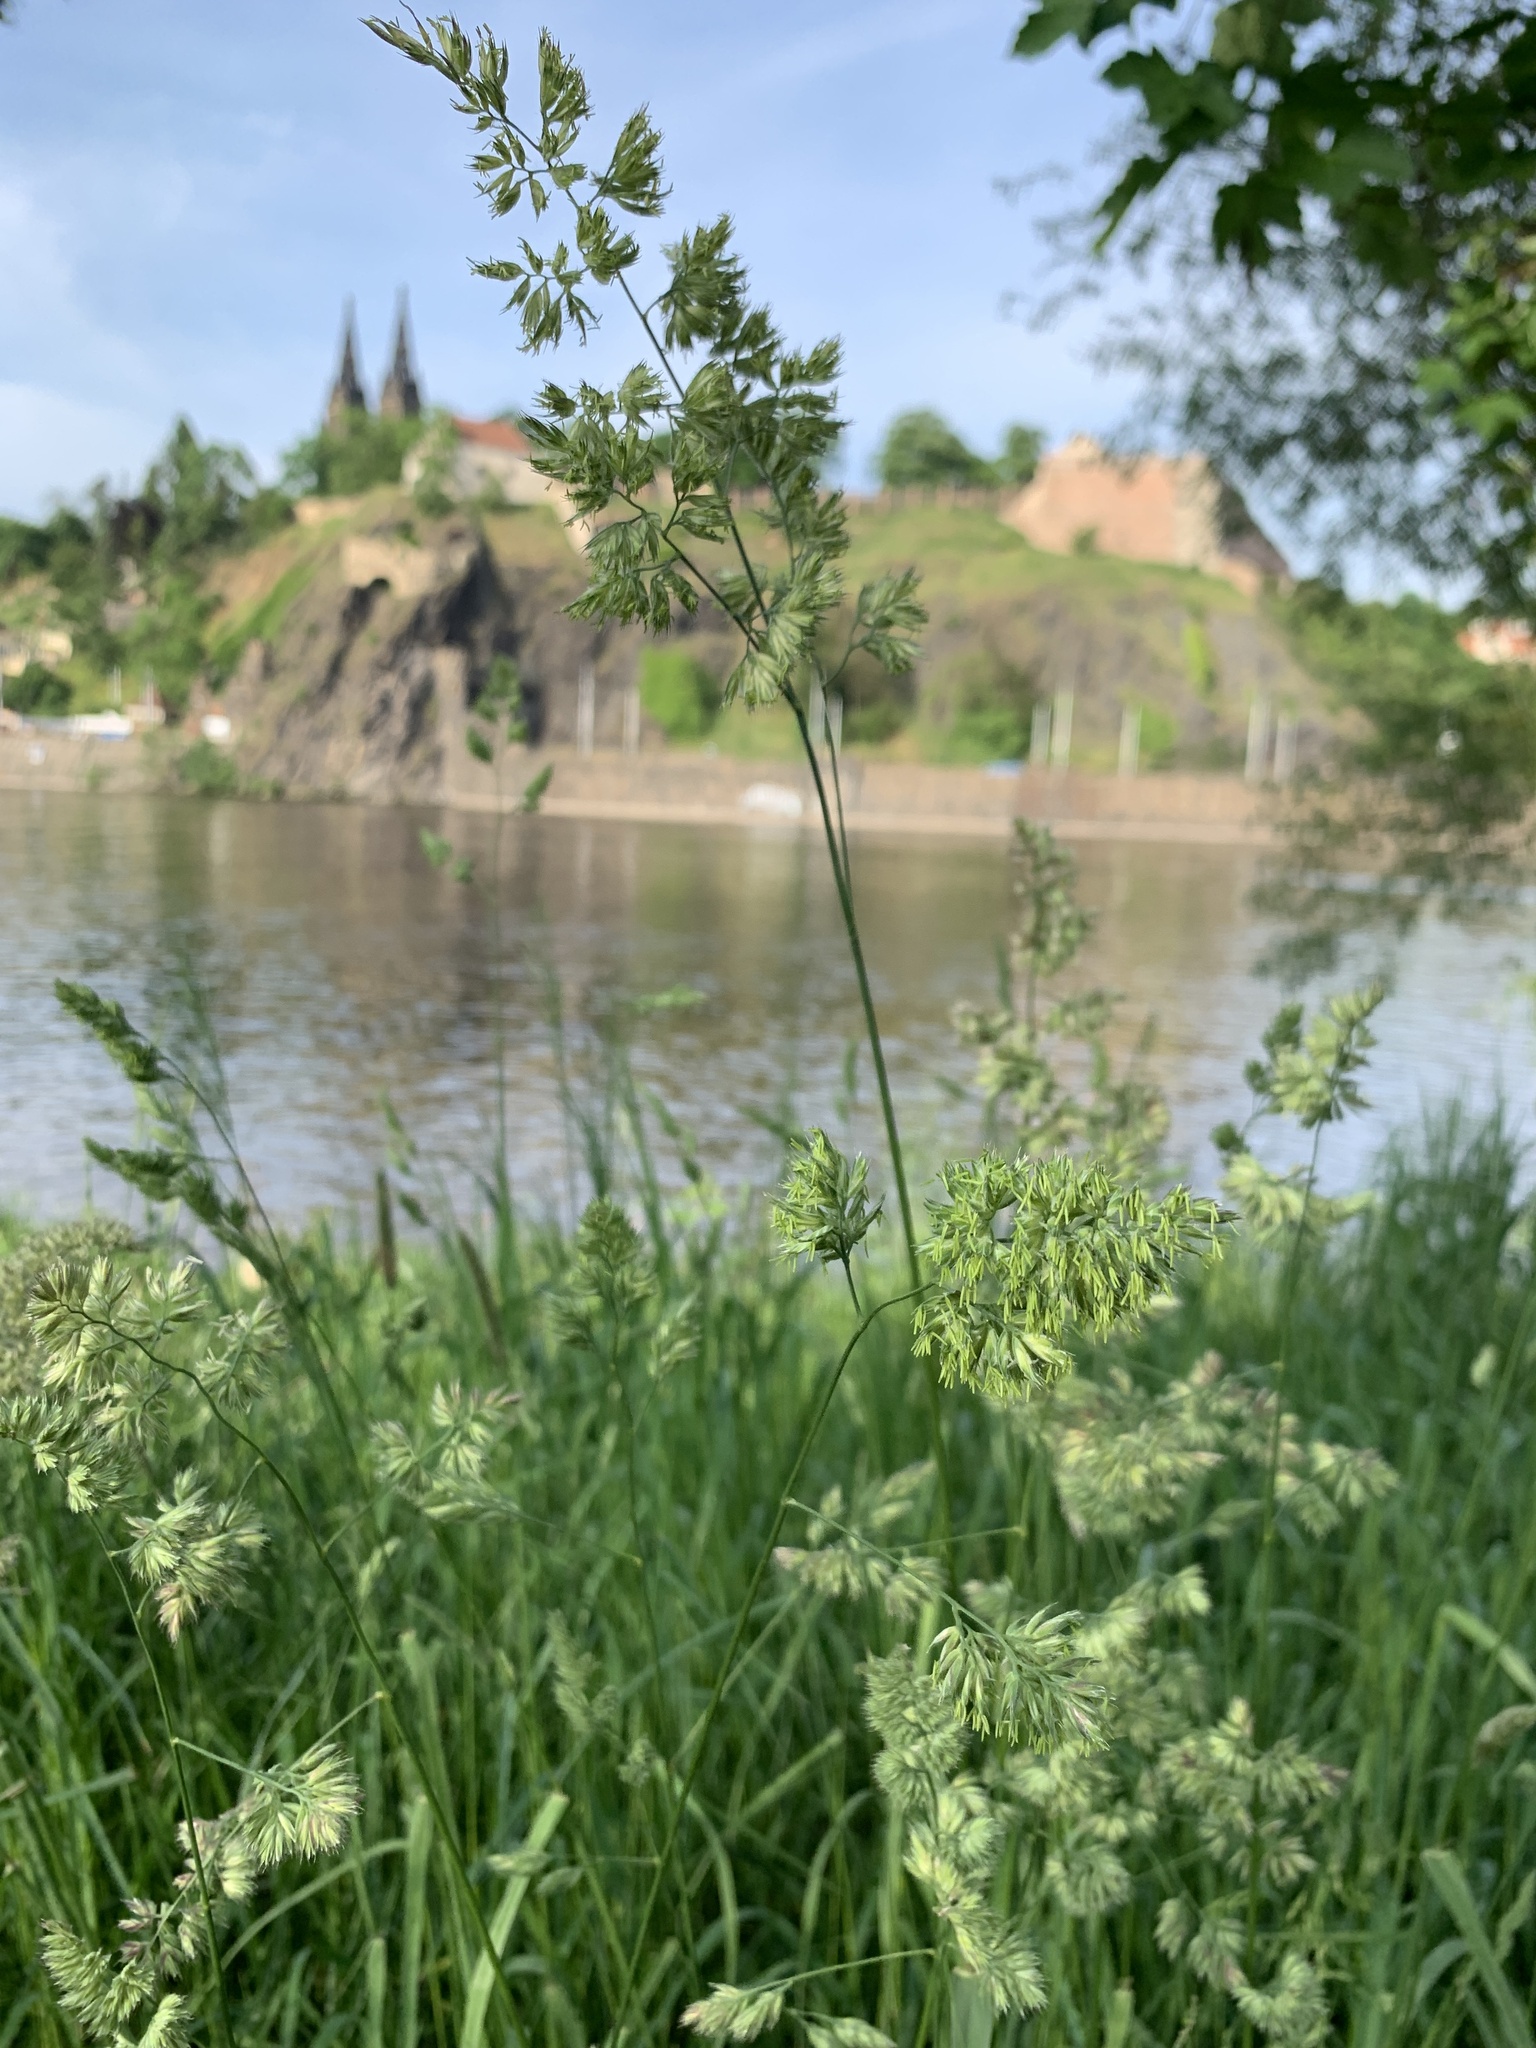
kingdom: Plantae
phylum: Tracheophyta
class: Liliopsida
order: Poales
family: Poaceae
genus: Dactylis
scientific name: Dactylis glomerata
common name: Orchardgrass
